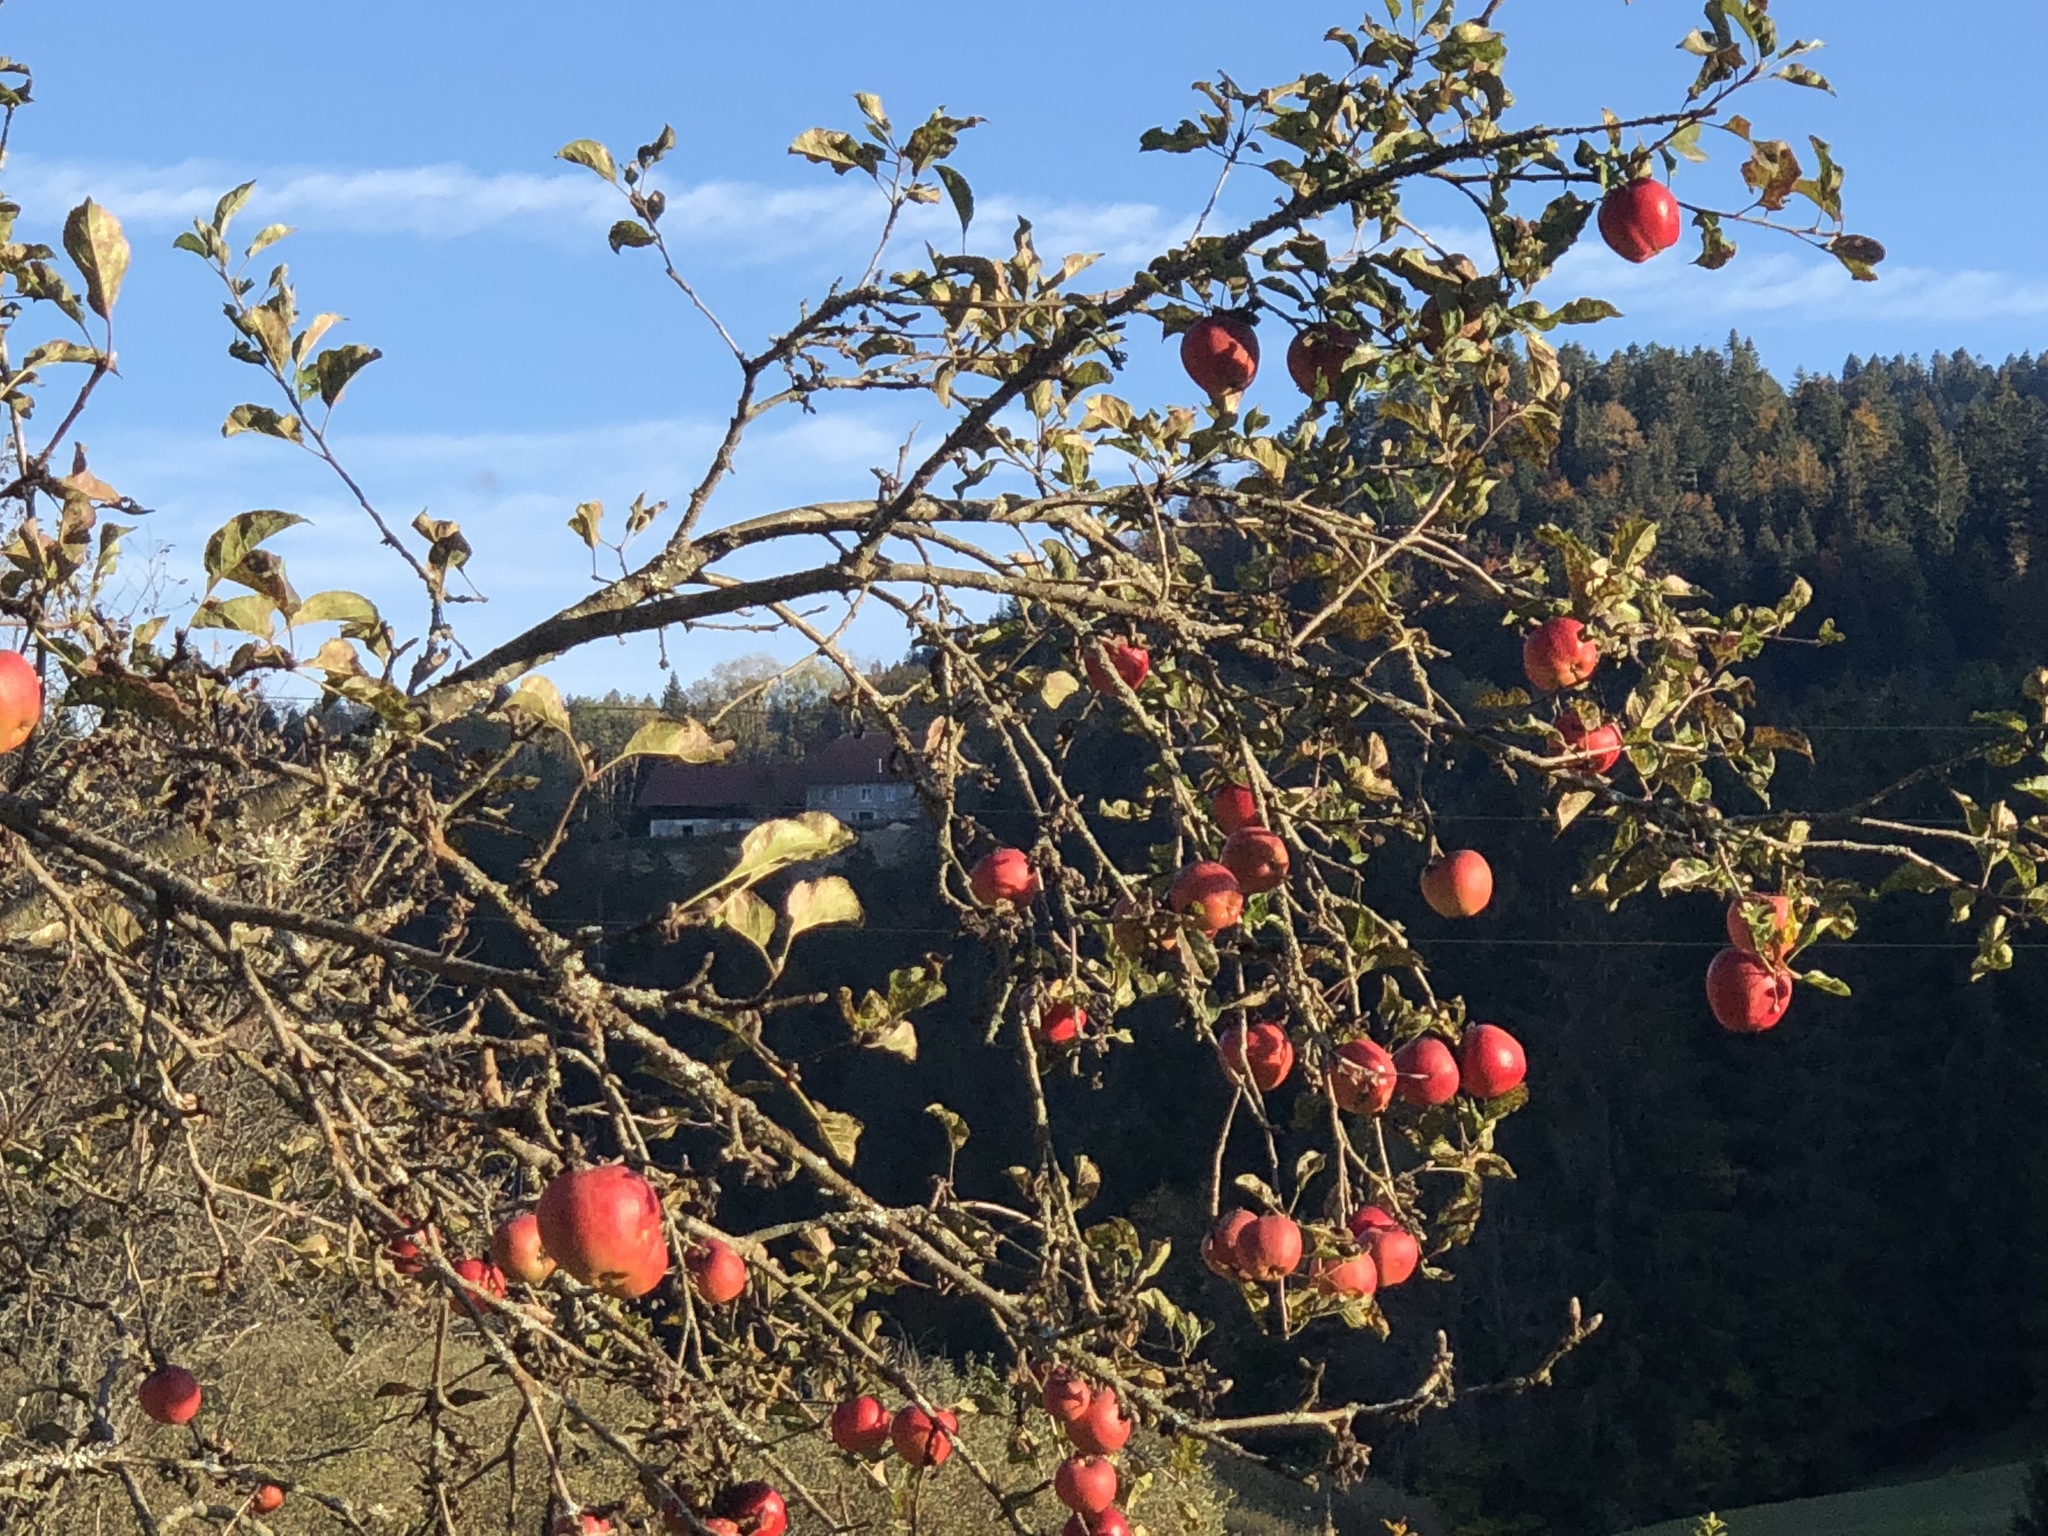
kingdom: Plantae
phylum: Tracheophyta
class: Magnoliopsida
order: Rosales
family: Rosaceae
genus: Malus
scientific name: Malus domestica
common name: Apple
